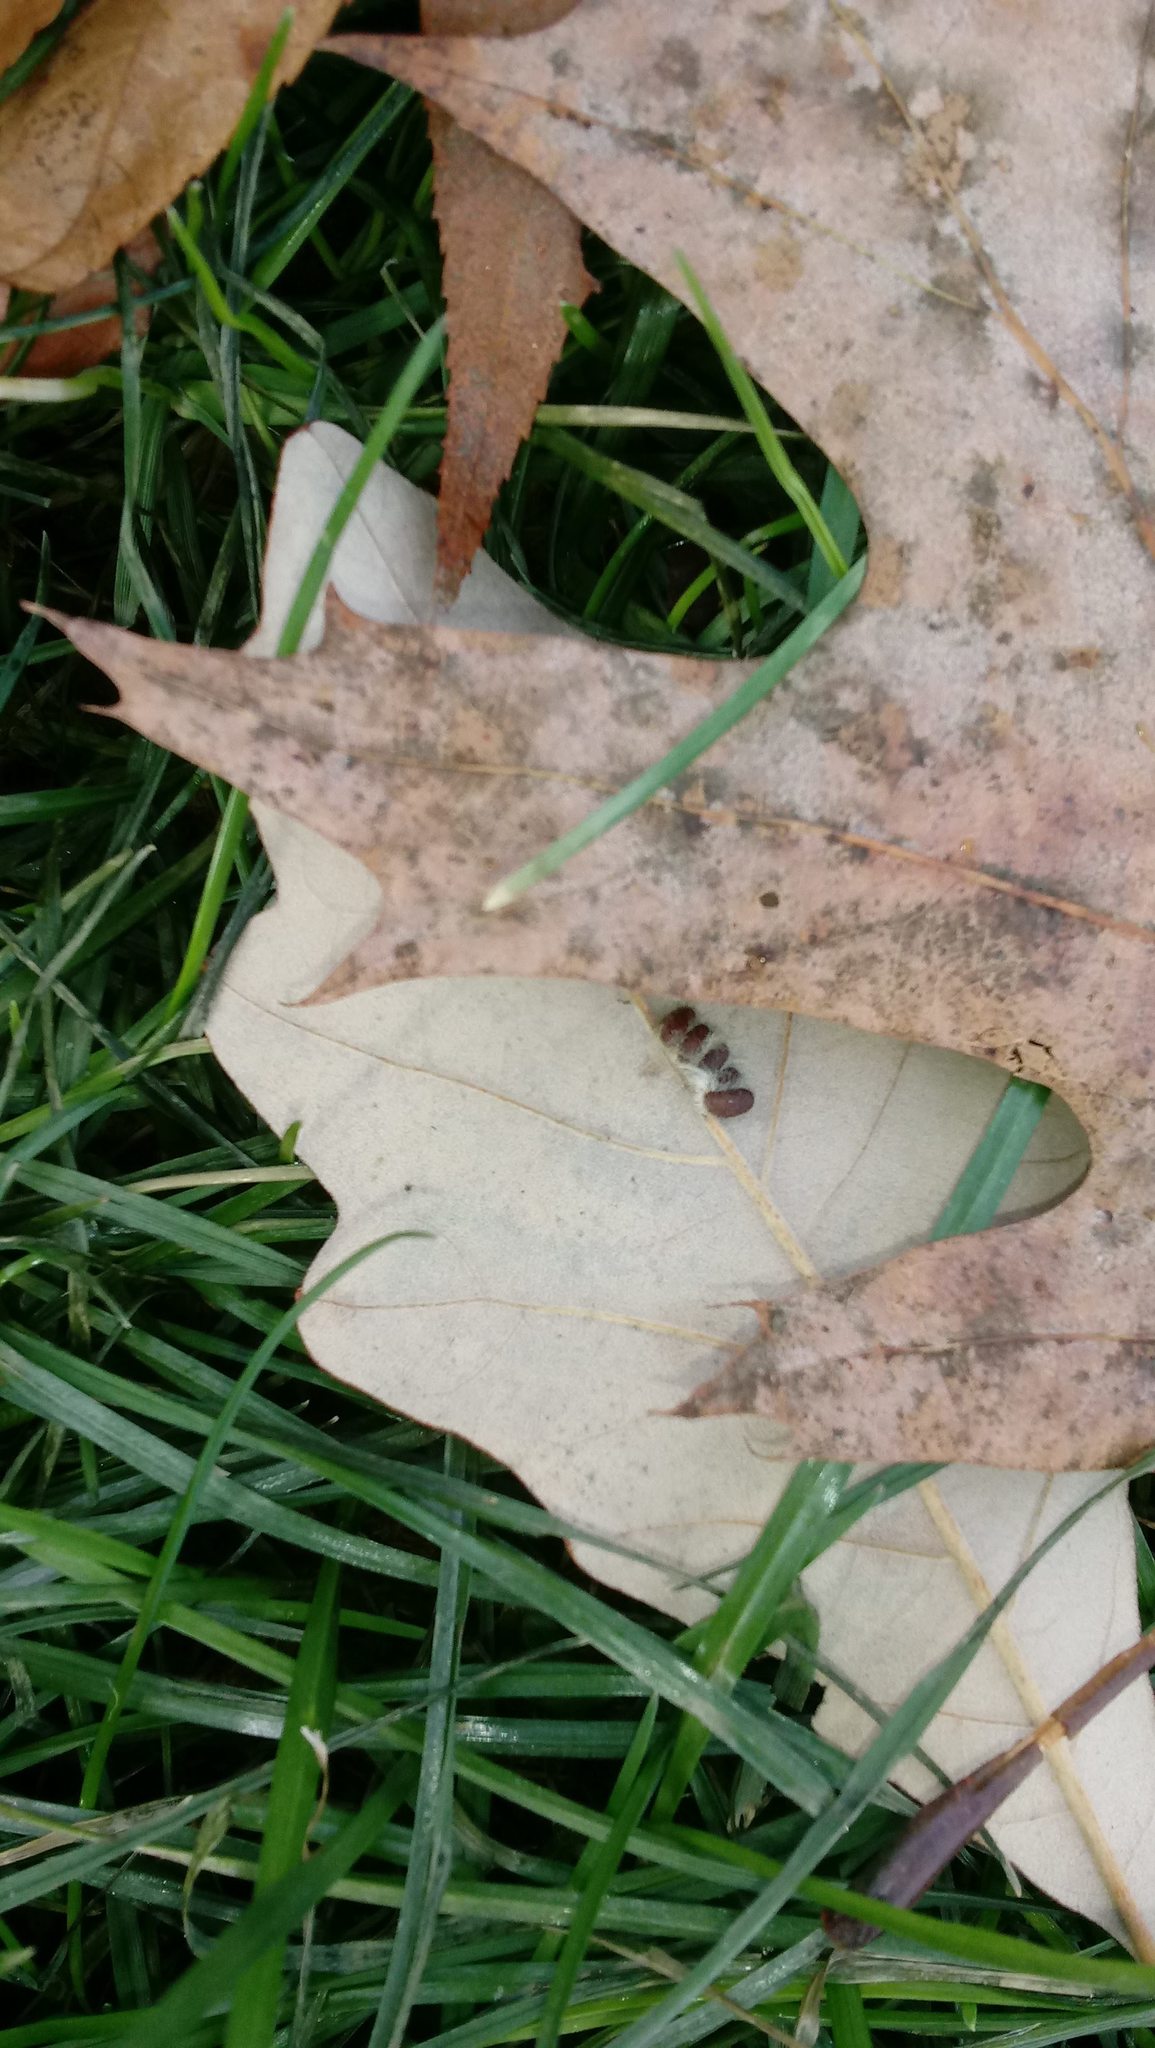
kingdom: Animalia
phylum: Arthropoda
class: Insecta
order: Hymenoptera
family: Cynipidae
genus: Andricus
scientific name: Andricus Druon ignotum
